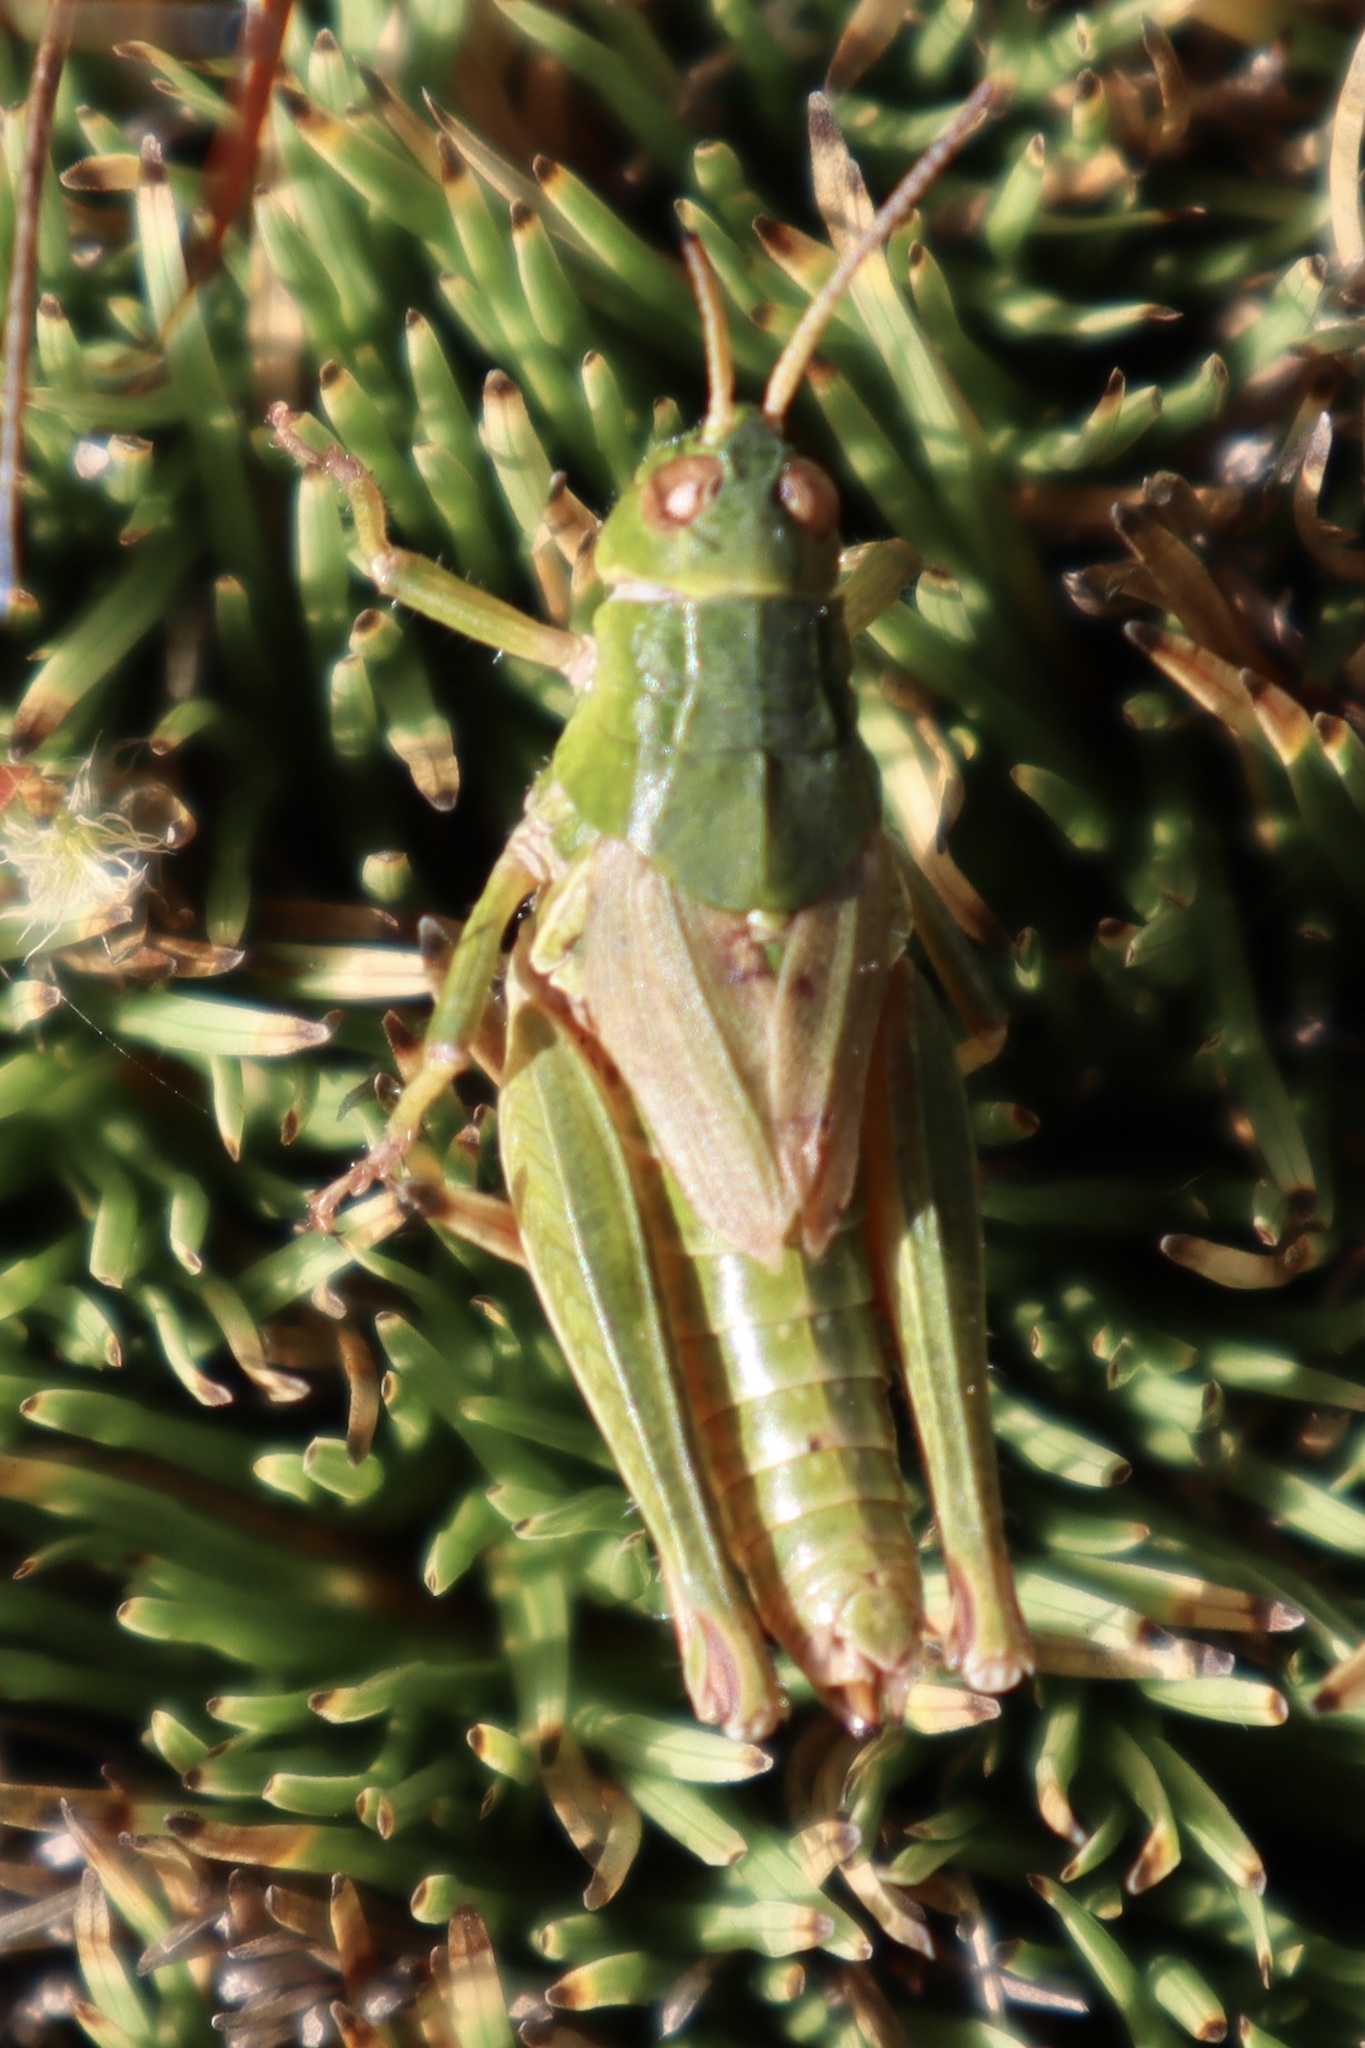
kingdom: Animalia
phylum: Arthropoda
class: Insecta
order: Orthoptera
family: Acrididae
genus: Phaulacridium
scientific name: Phaulacridium marginale
